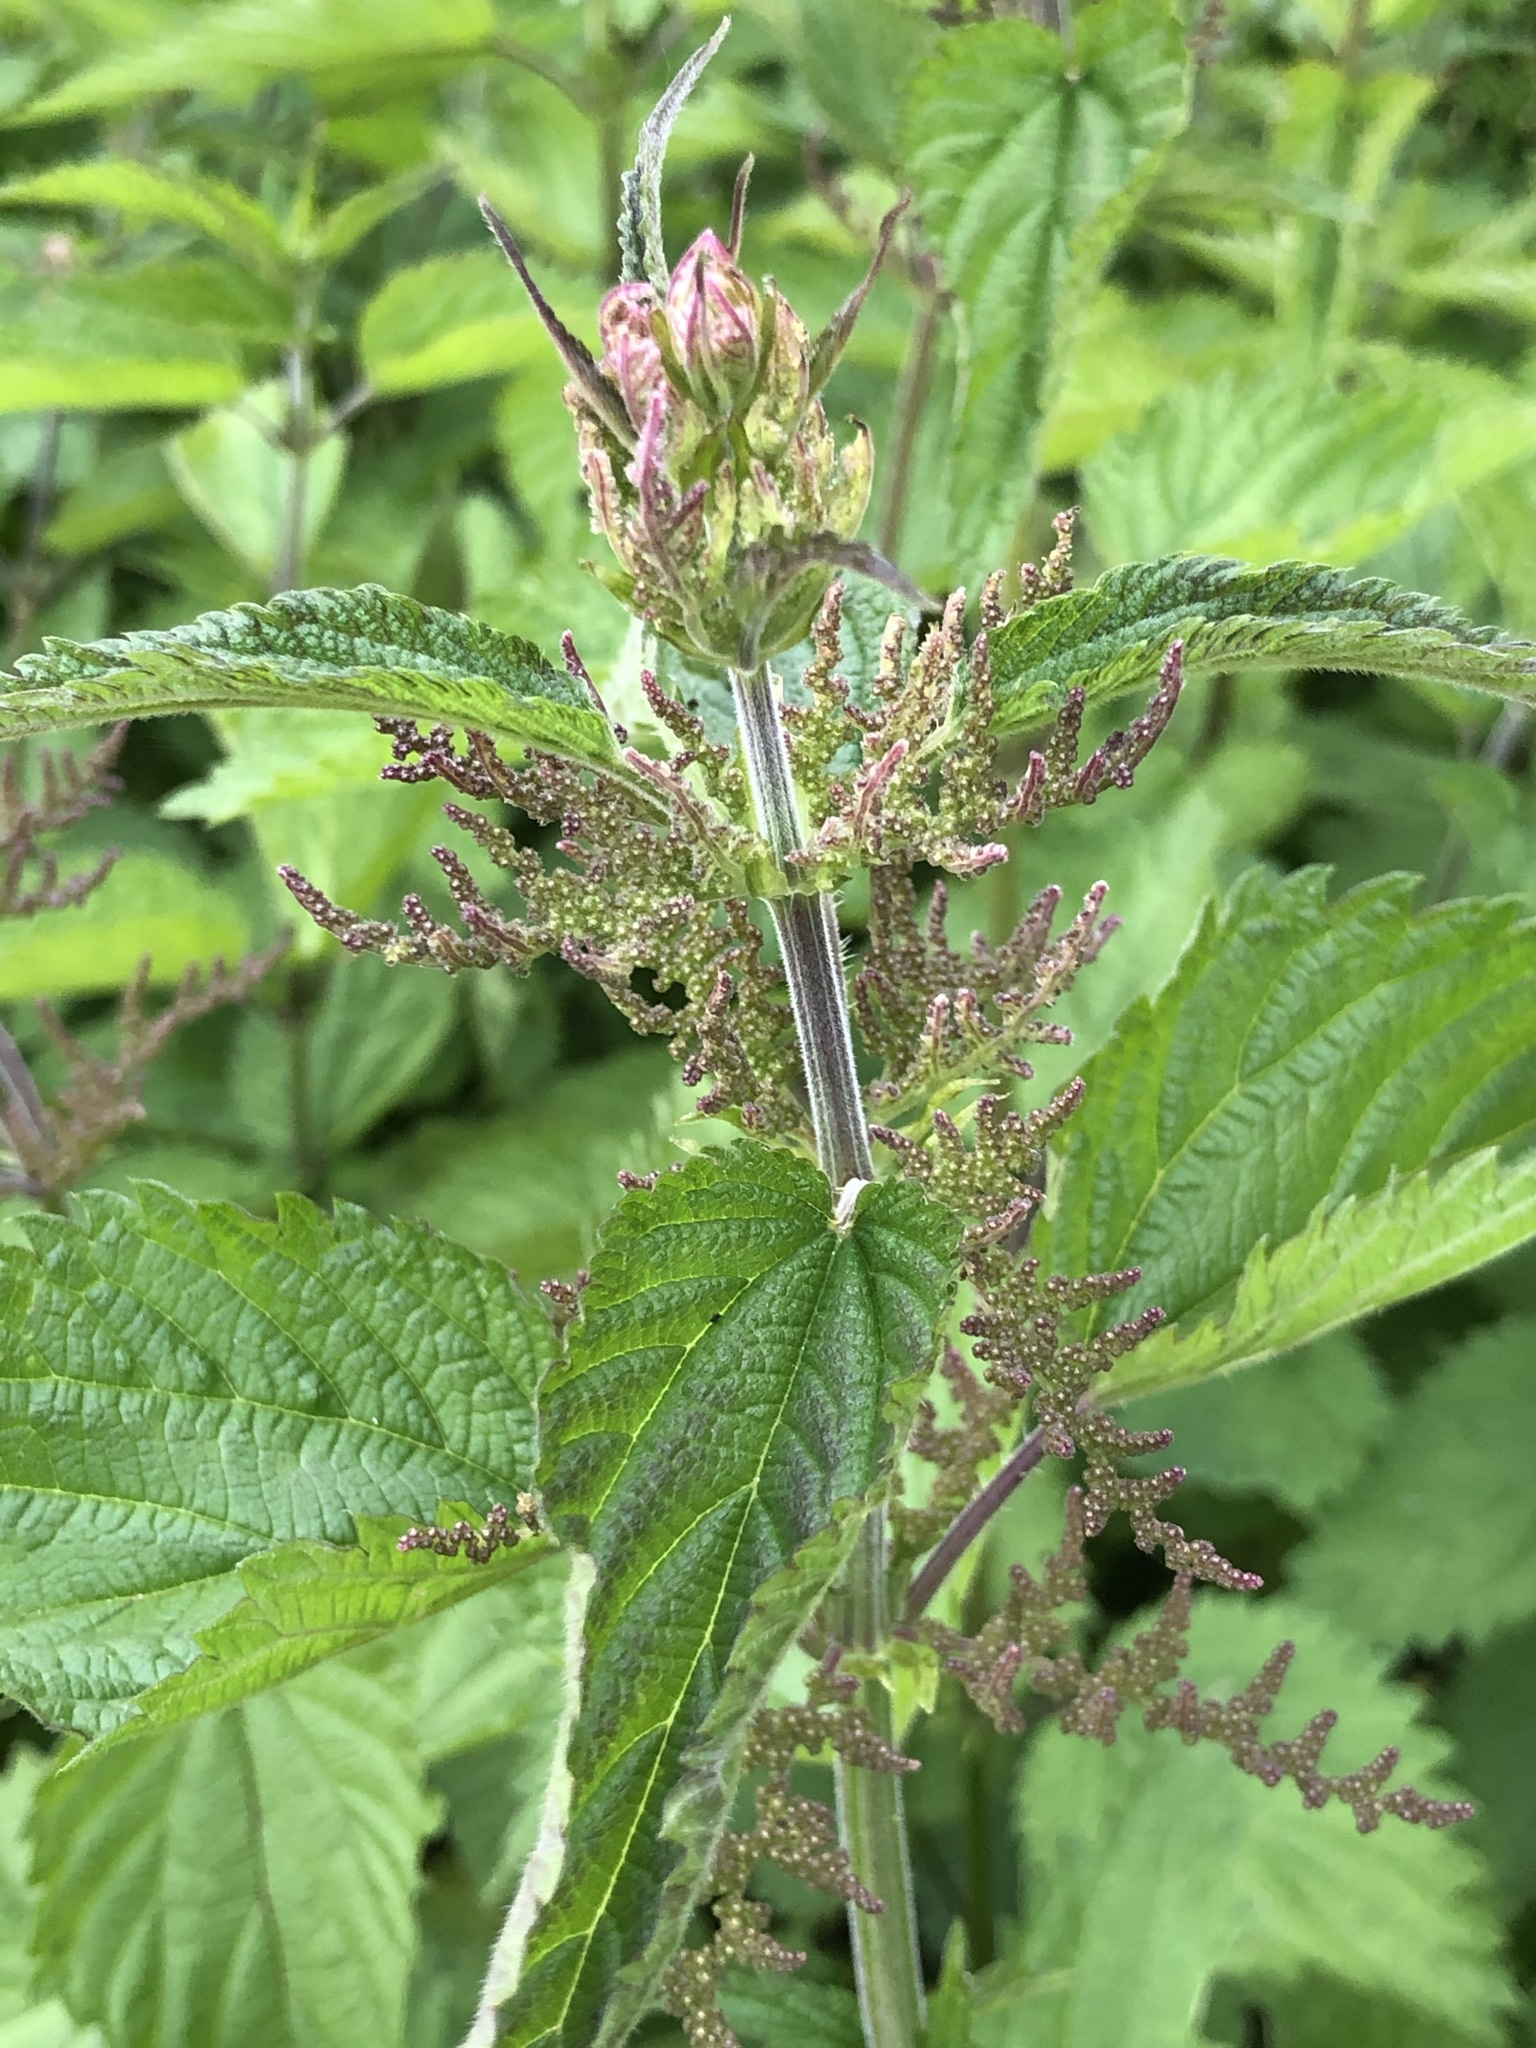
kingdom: Plantae
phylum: Tracheophyta
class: Magnoliopsida
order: Rosales
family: Urticaceae
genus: Urtica
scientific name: Urtica dioica
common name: Common nettle
